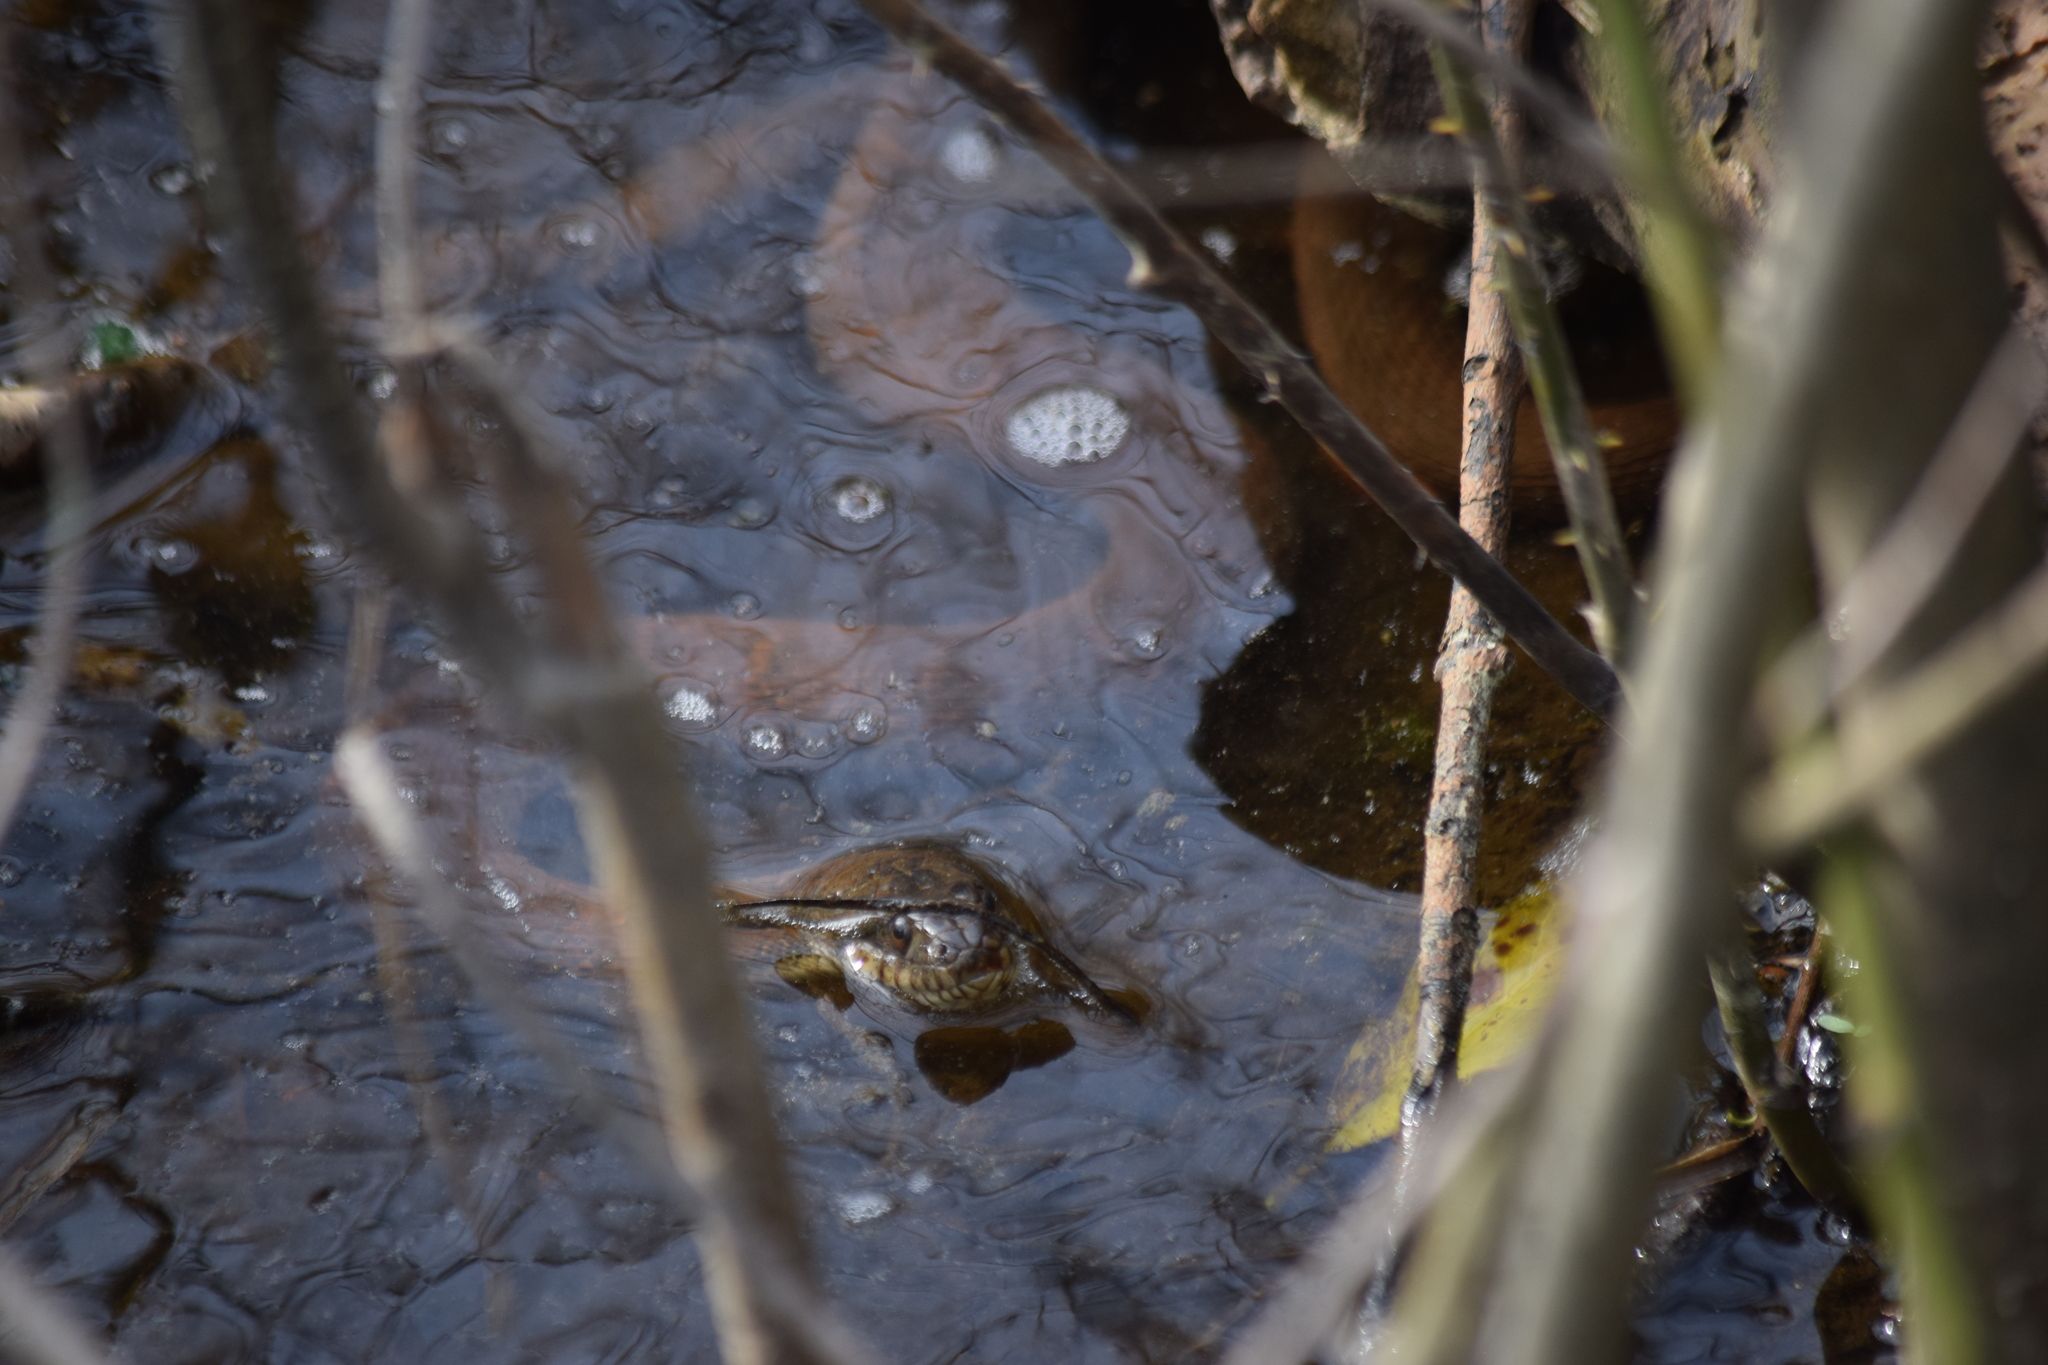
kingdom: Animalia
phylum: Chordata
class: Squamata
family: Colubridae
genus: Nerodia
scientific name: Nerodia sipedon
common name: Northern water snake
